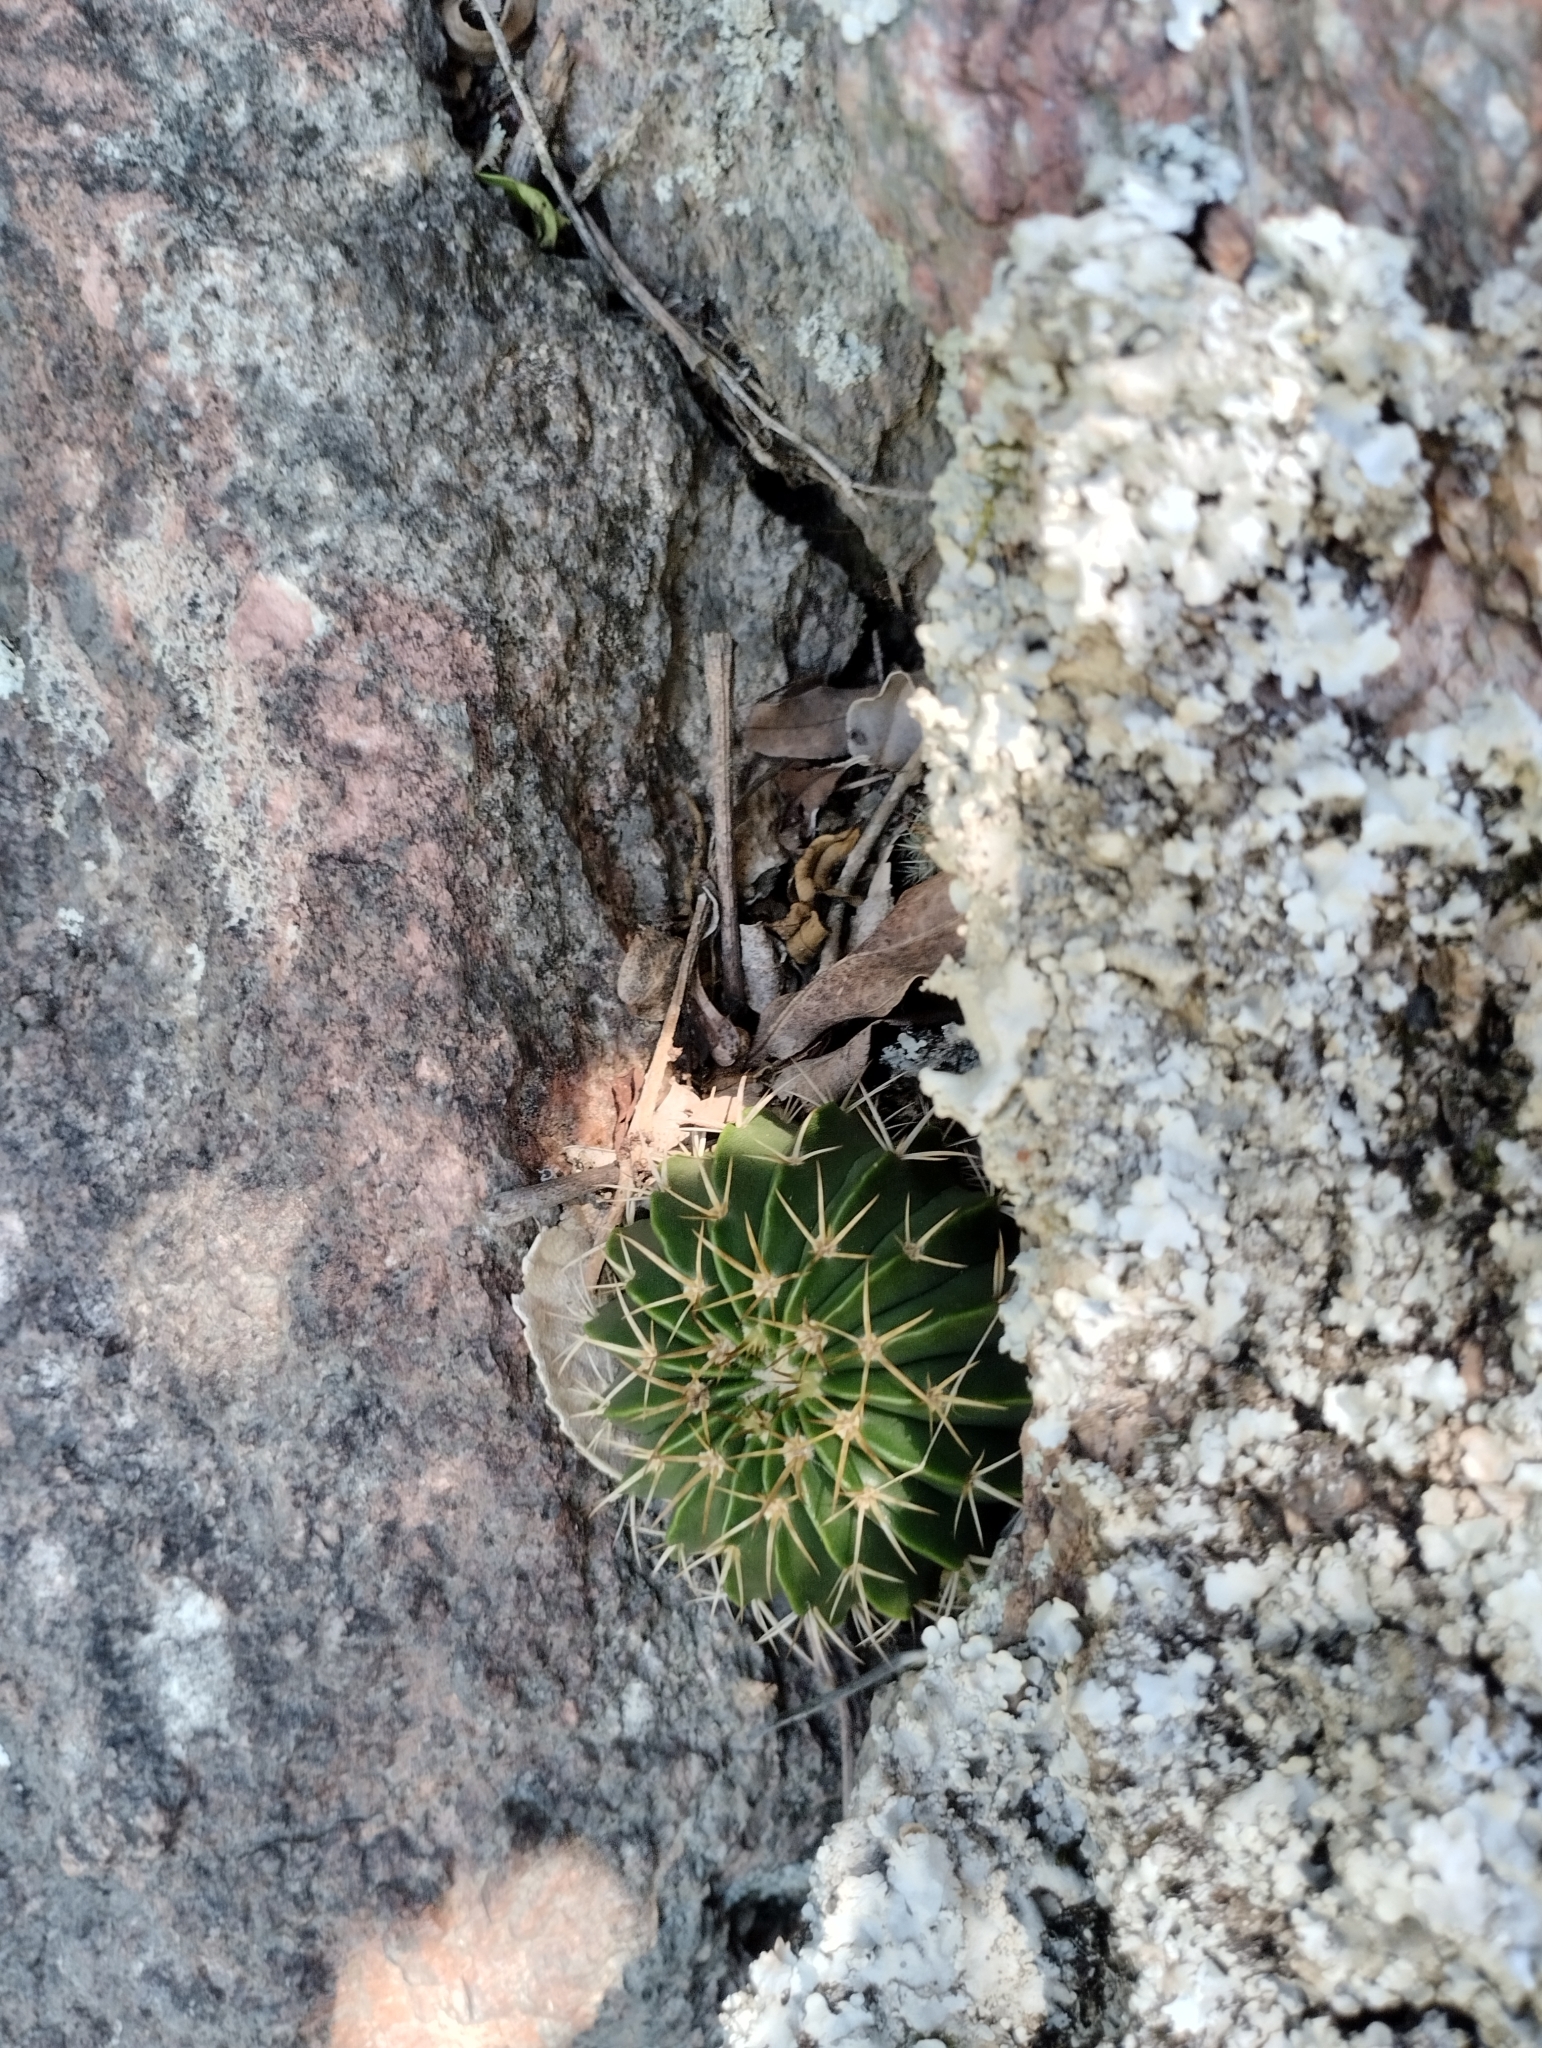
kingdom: Plantae
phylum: Tracheophyta
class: Magnoliopsida
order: Caryophyllales
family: Cactaceae
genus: Parodia
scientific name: Parodia erinacea
